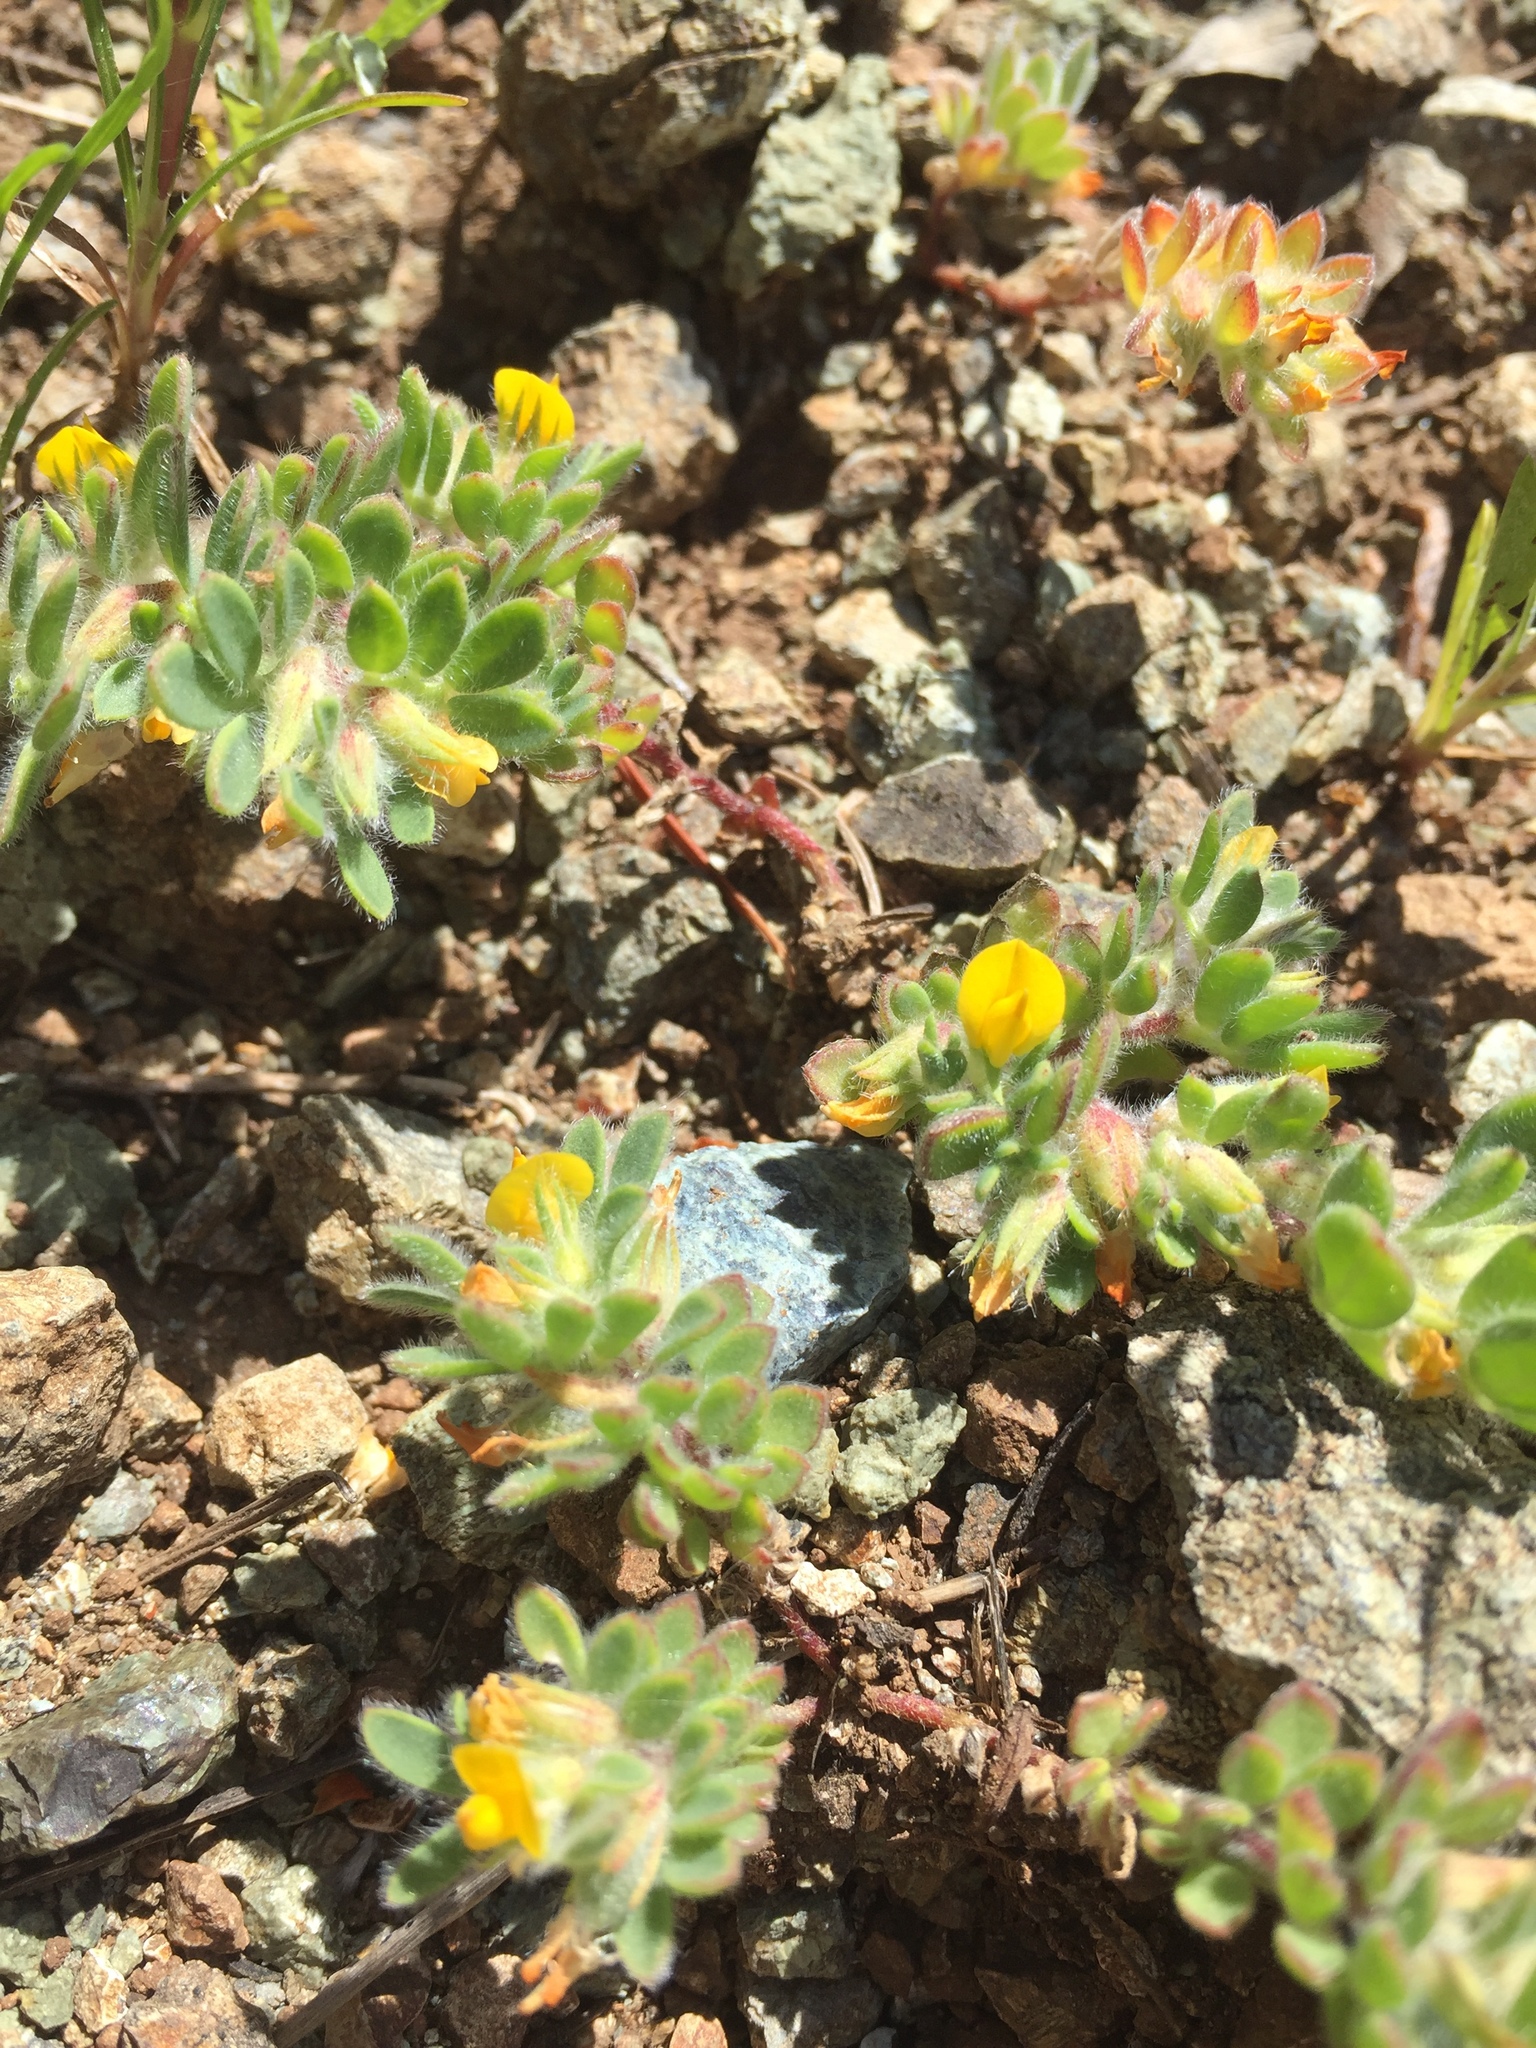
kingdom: Plantae
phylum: Tracheophyta
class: Magnoliopsida
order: Fabales
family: Fabaceae
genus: Acmispon
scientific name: Acmispon brachycarpus
